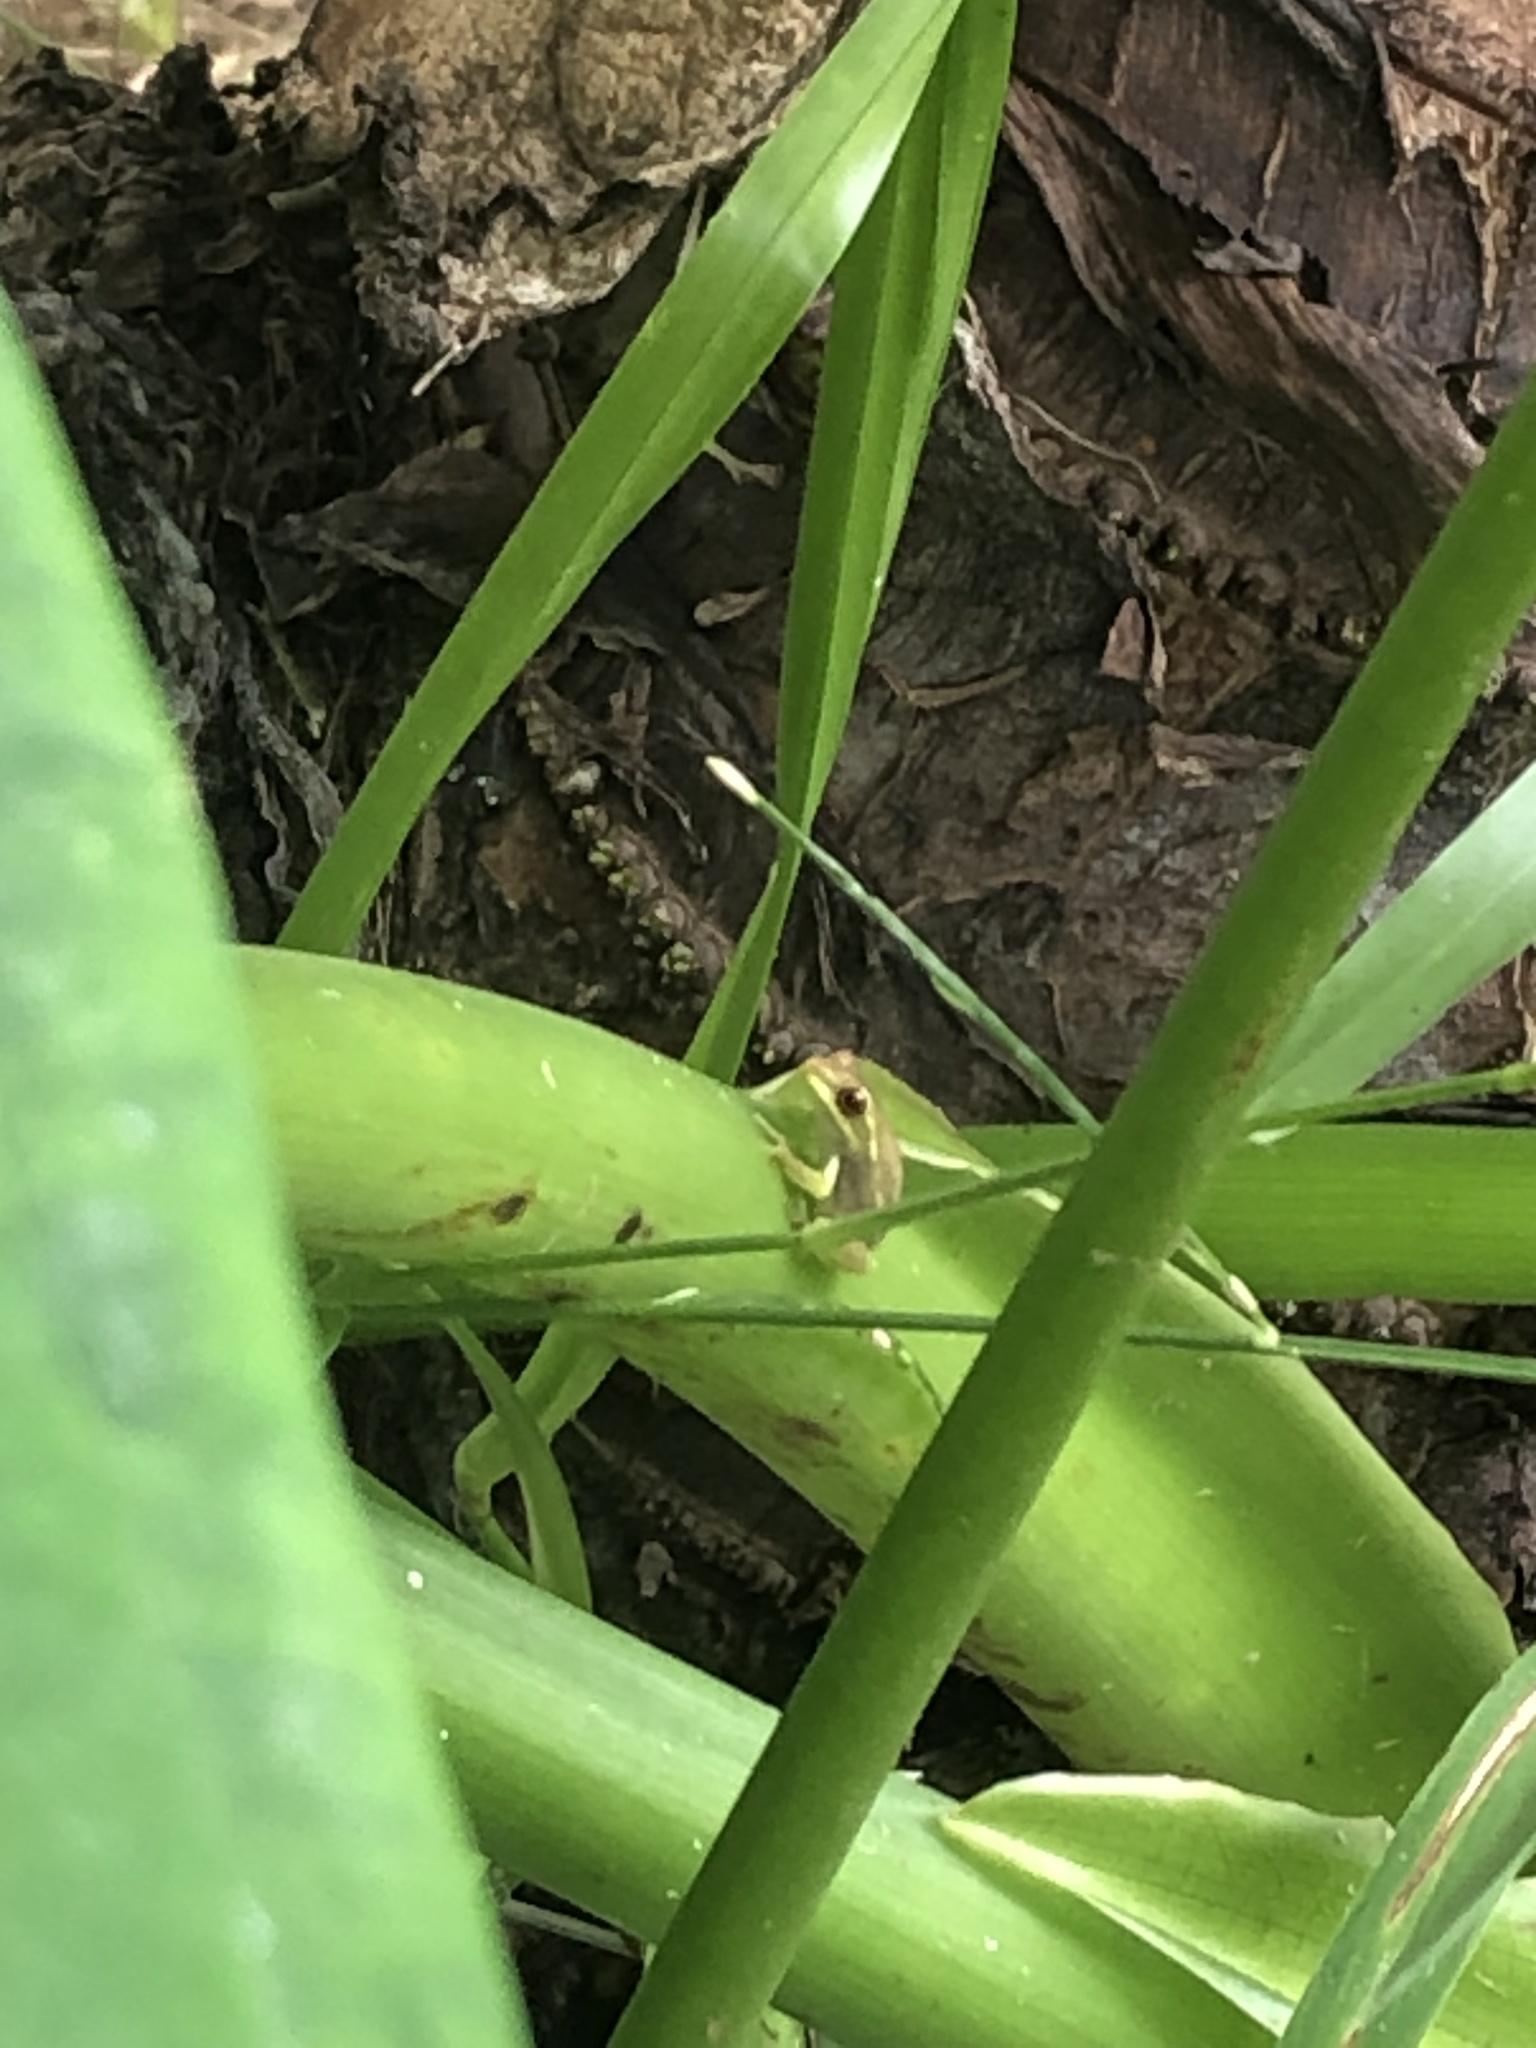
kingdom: Animalia
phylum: Chordata
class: Amphibia
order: Anura
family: Hylidae
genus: Osteopilus
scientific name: Osteopilus septentrionalis
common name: Cuban treefrog
